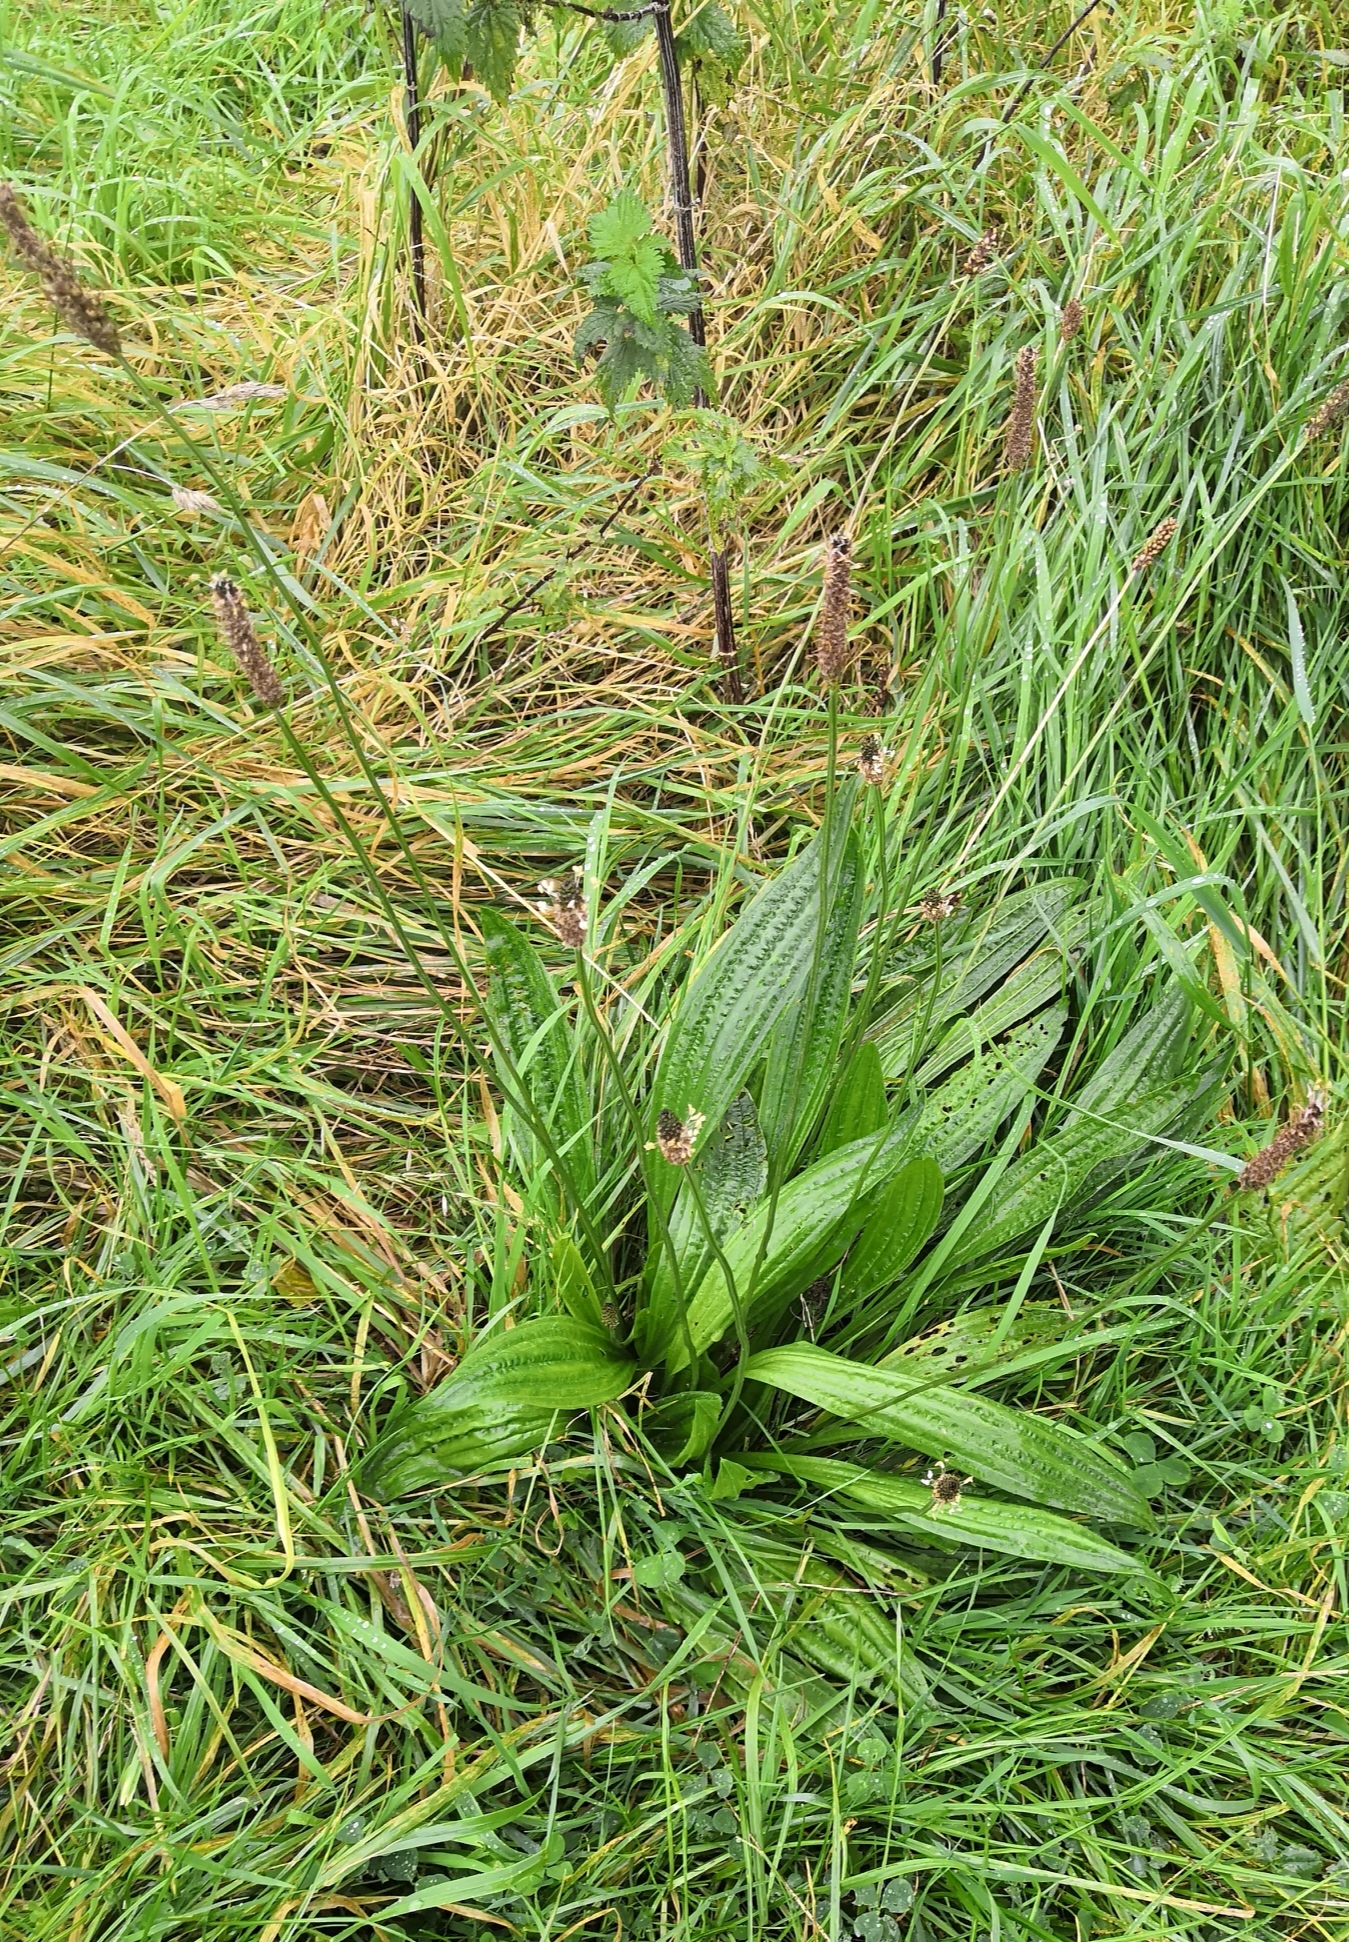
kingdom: Plantae
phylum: Tracheophyta
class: Magnoliopsida
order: Lamiales
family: Plantaginaceae
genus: Plantago
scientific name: Plantago lanceolata
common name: Ribwort plantain
